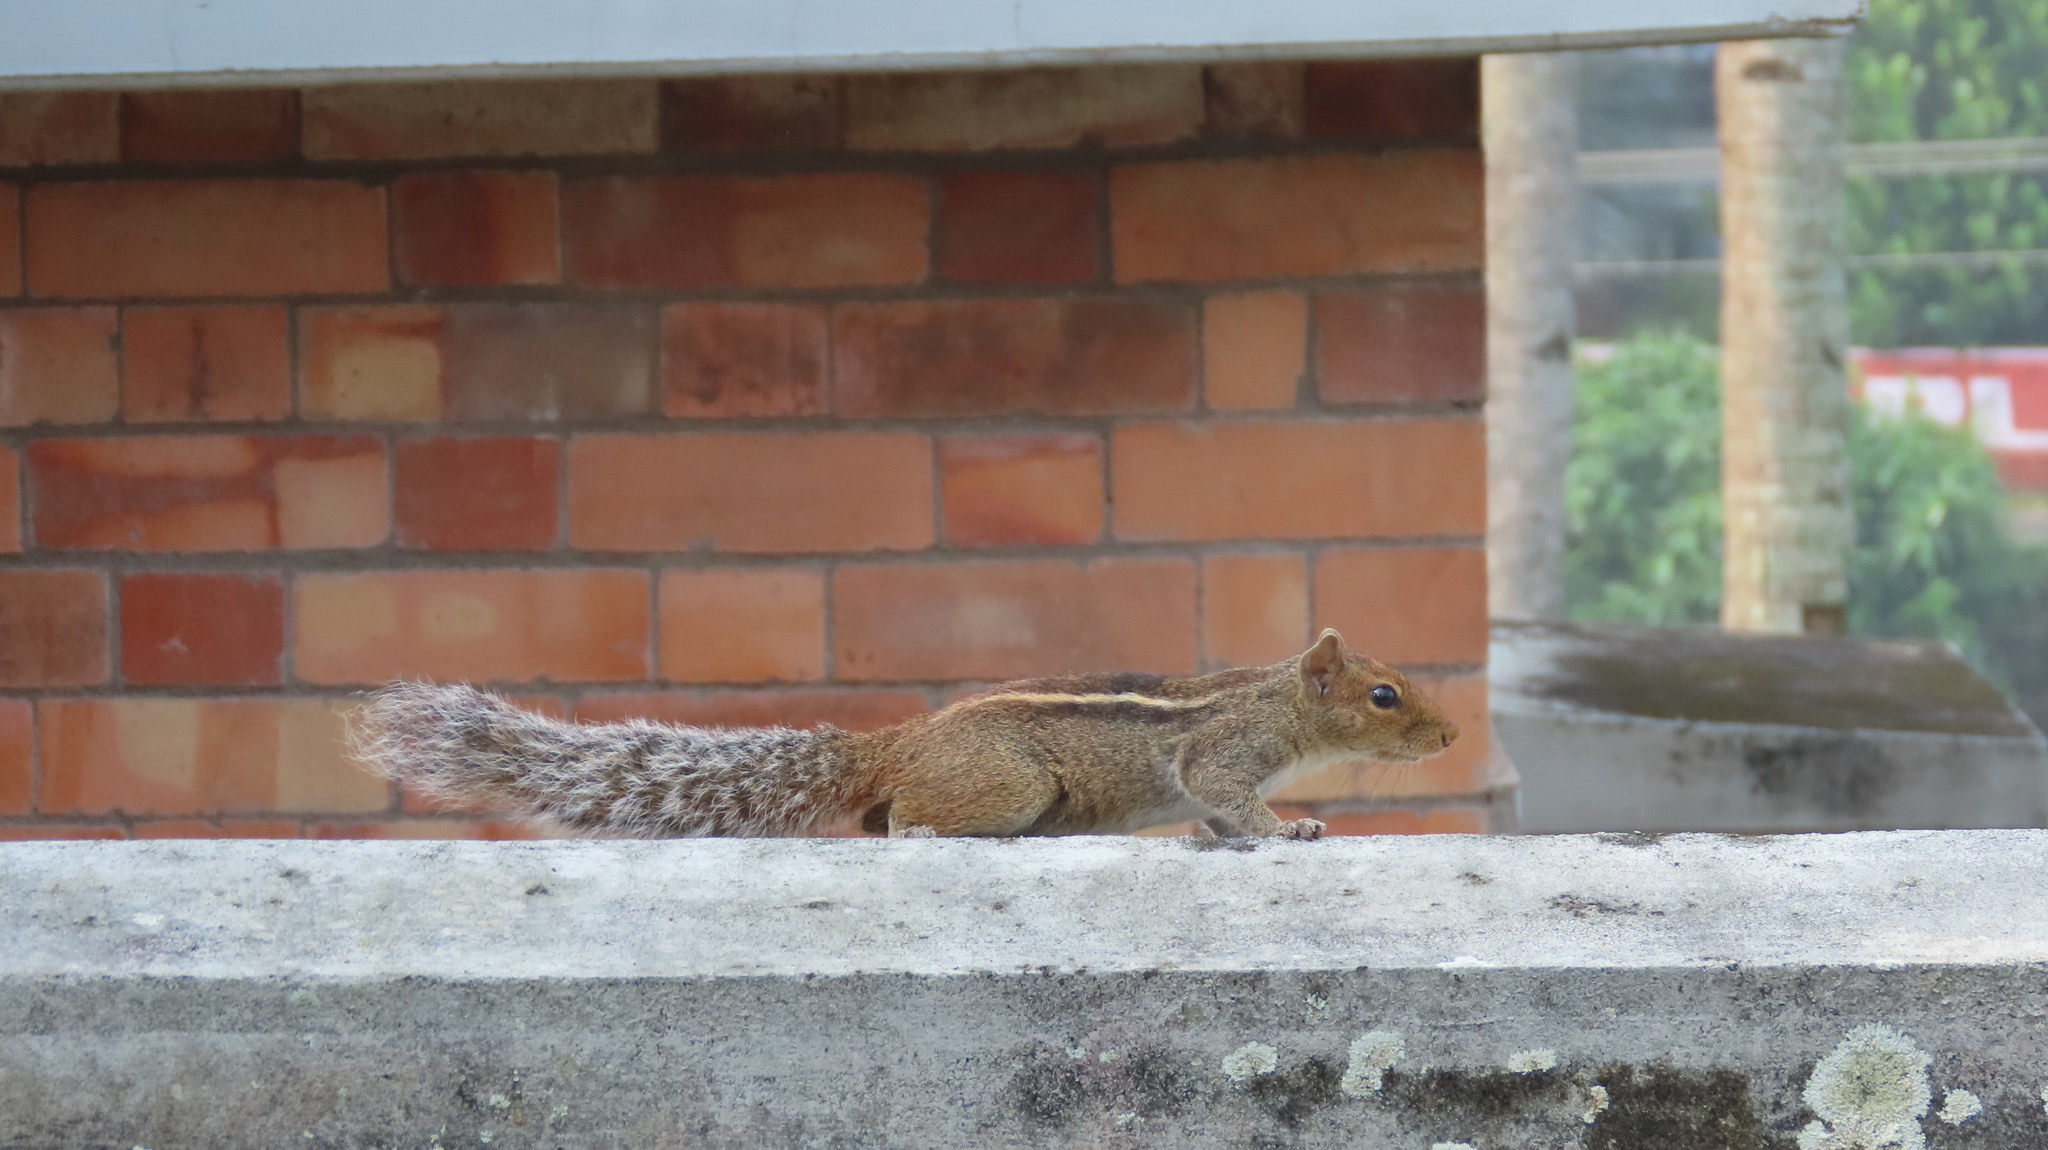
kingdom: Animalia
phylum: Chordata
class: Mammalia
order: Rodentia
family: Sciuridae
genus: Funambulus
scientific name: Funambulus tristriatus
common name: Jungle palm squirrel
